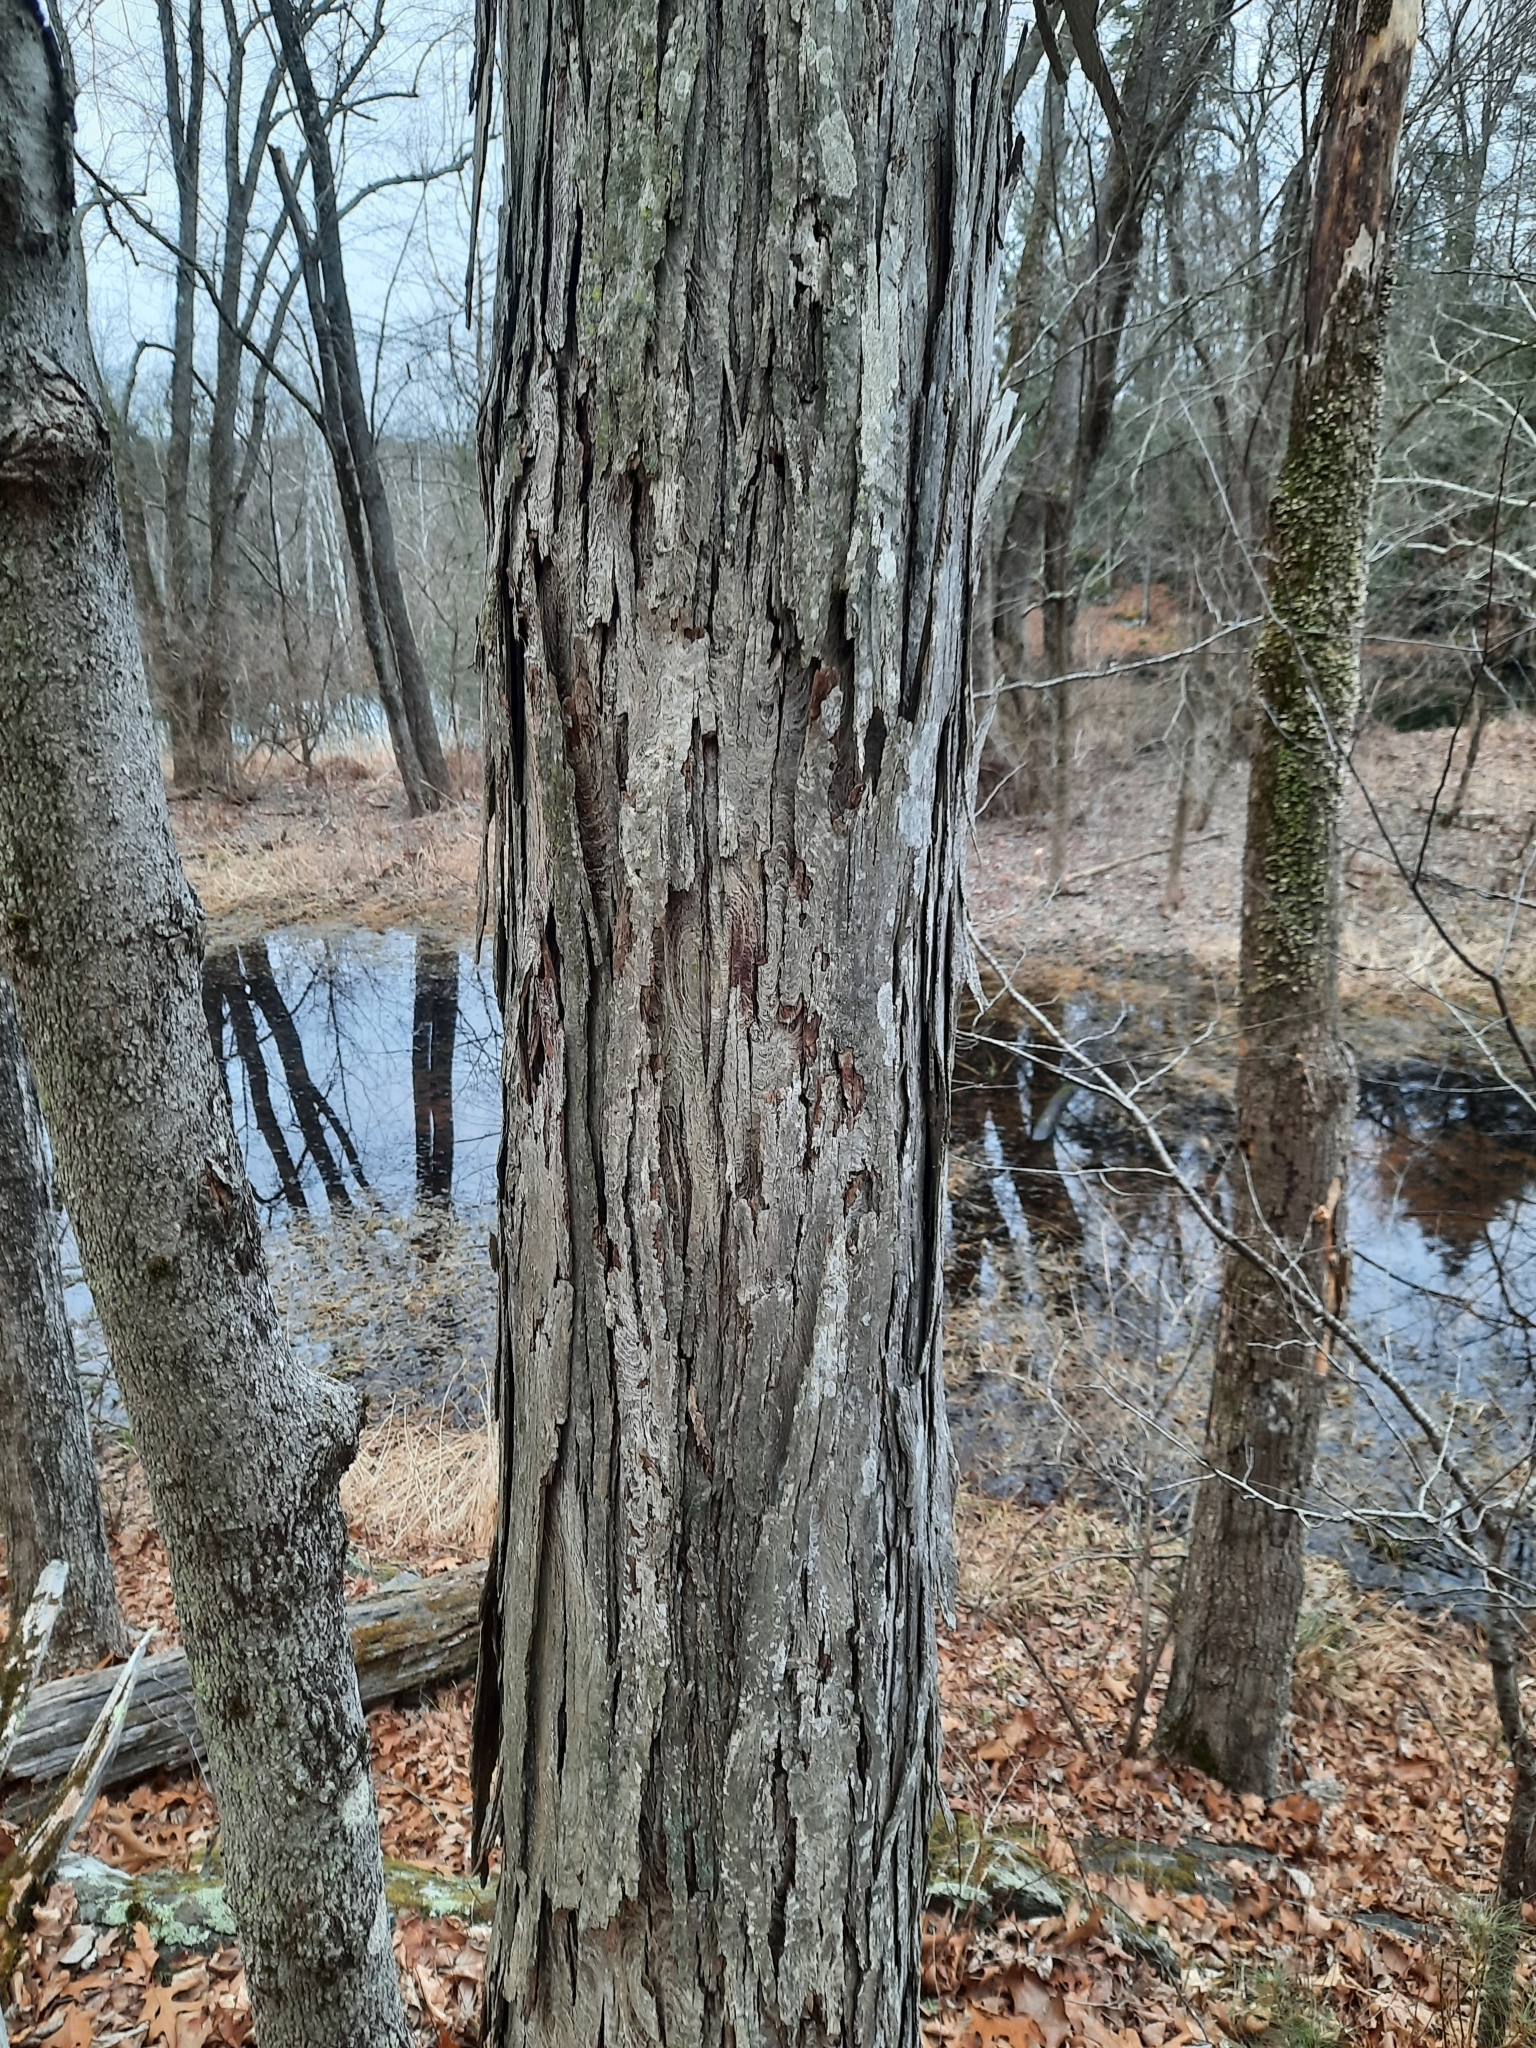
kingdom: Plantae
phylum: Tracheophyta
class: Magnoliopsida
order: Fagales
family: Juglandaceae
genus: Carya
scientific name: Carya ovata
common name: Shagbark hickory
